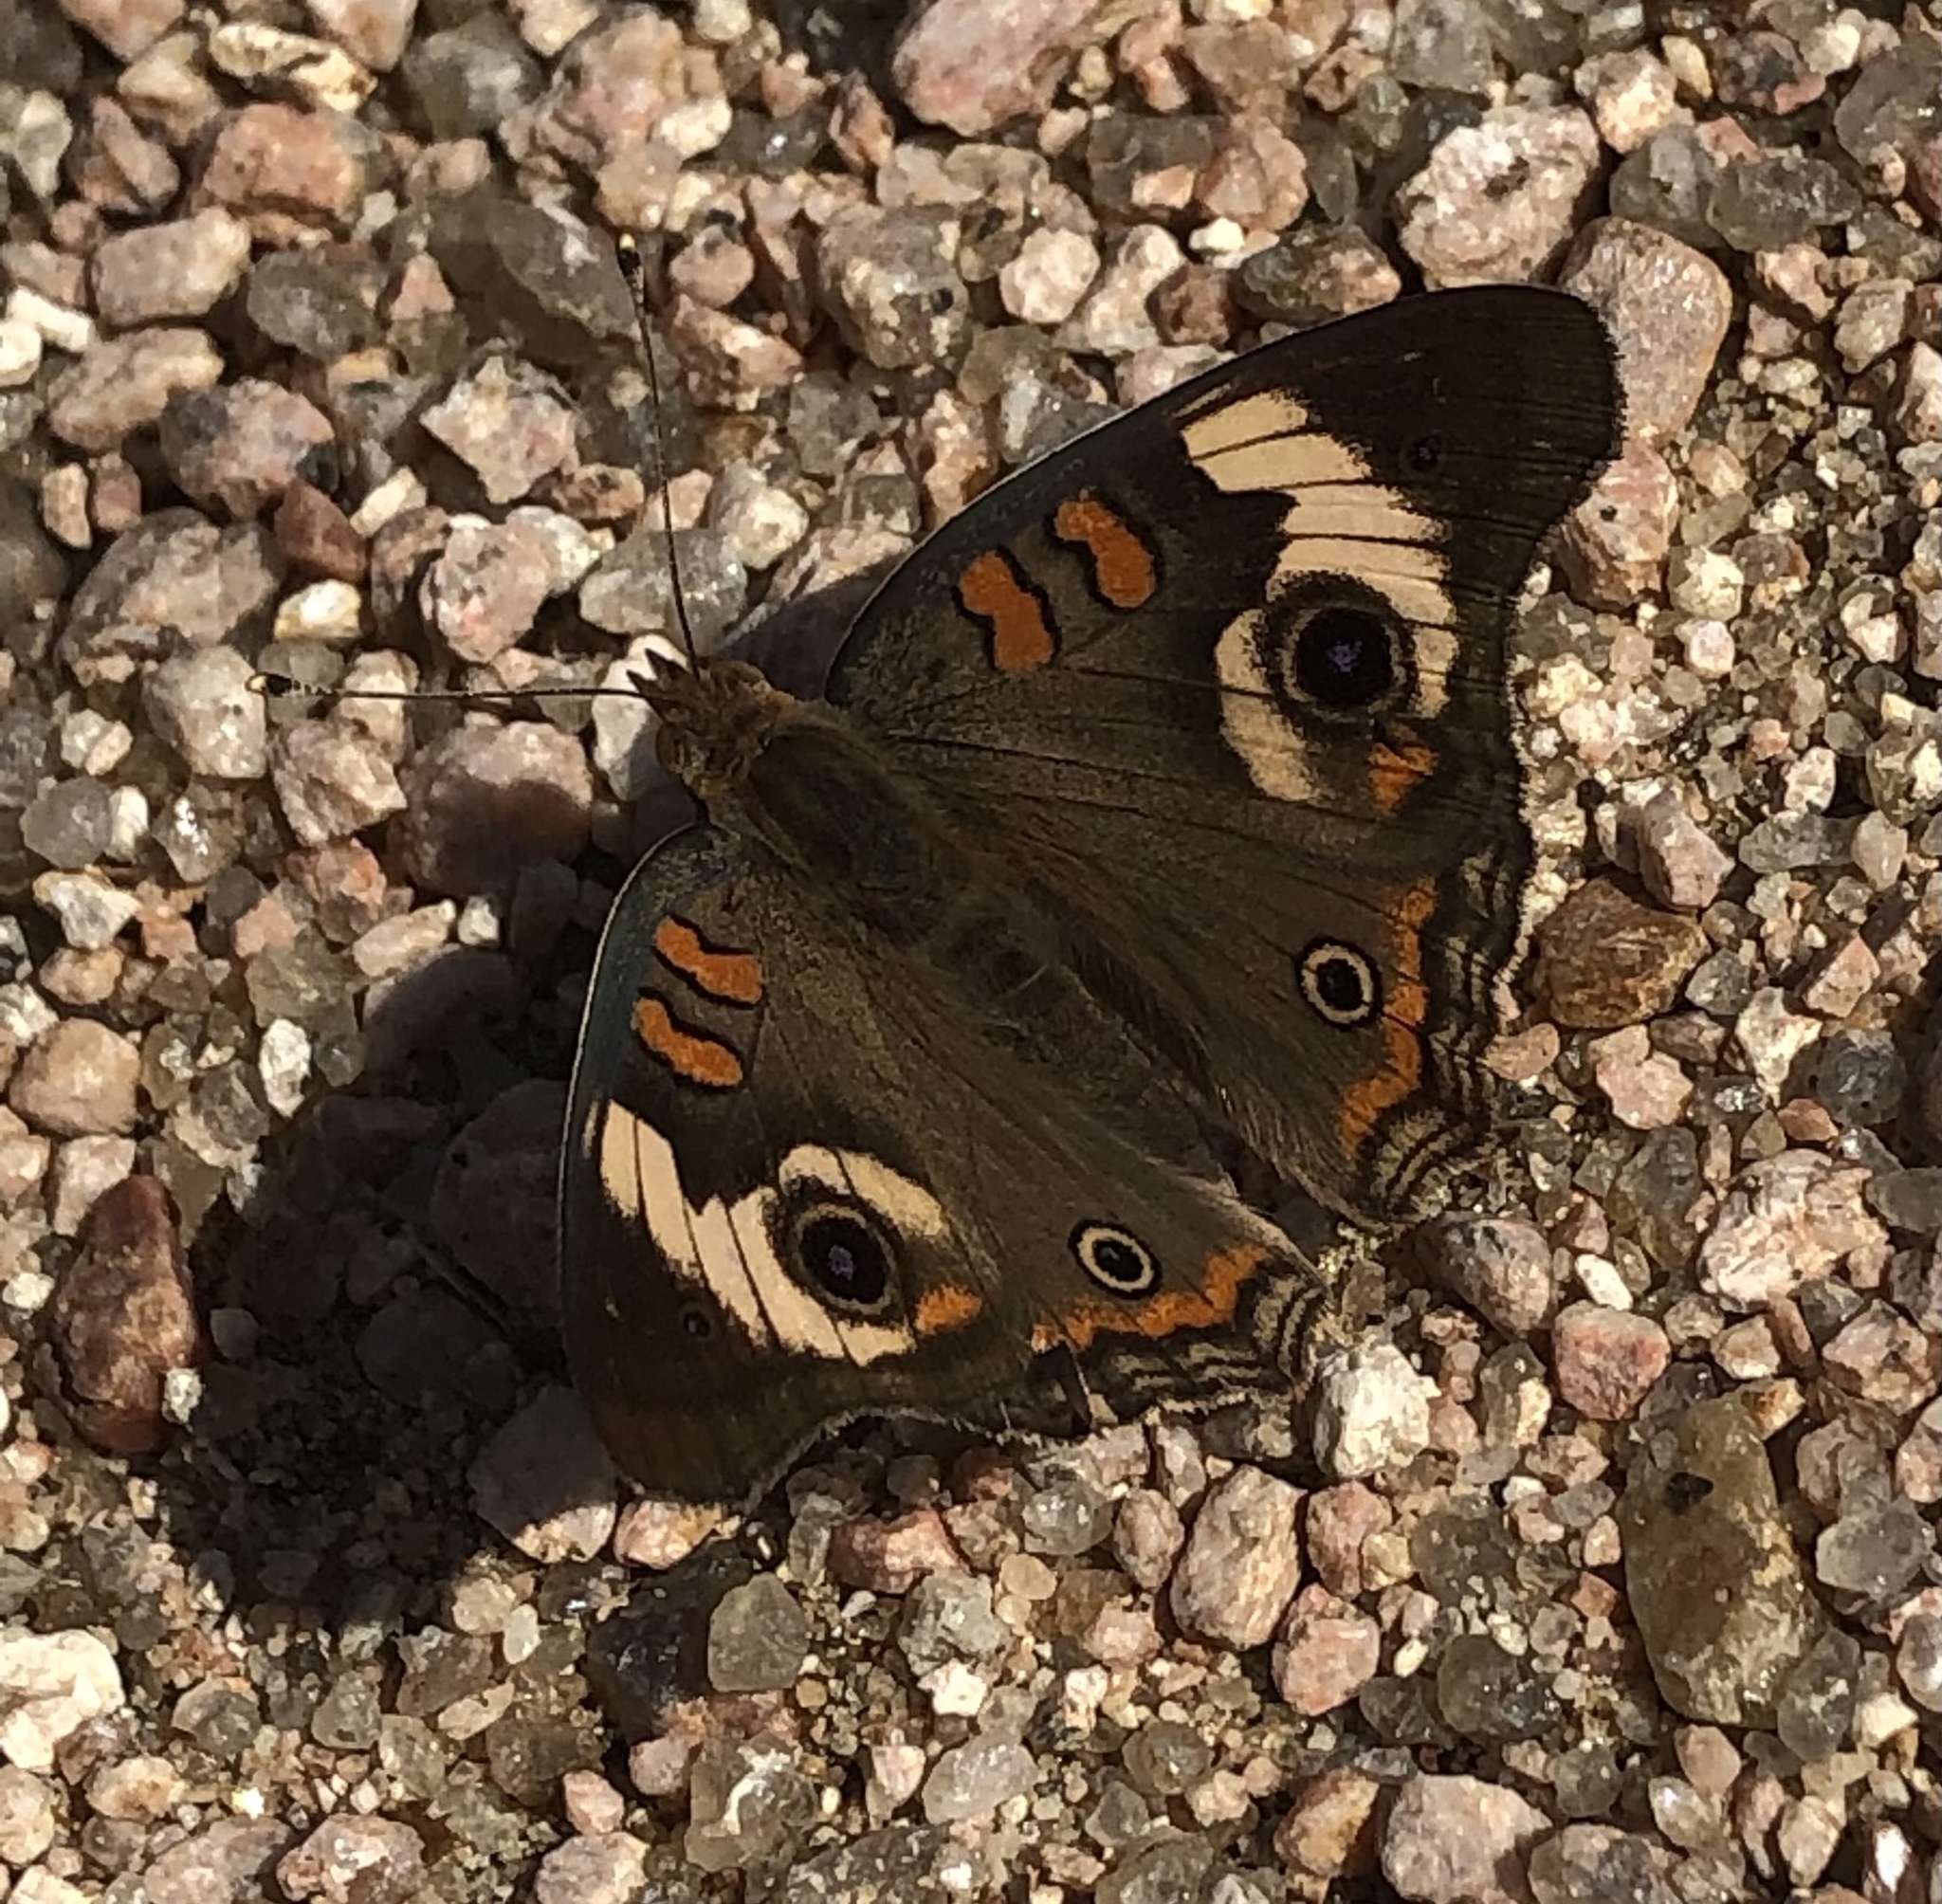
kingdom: Animalia
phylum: Arthropoda
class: Insecta
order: Lepidoptera
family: Nymphalidae
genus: Junonia
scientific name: Junonia coenia
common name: Common buckeye
